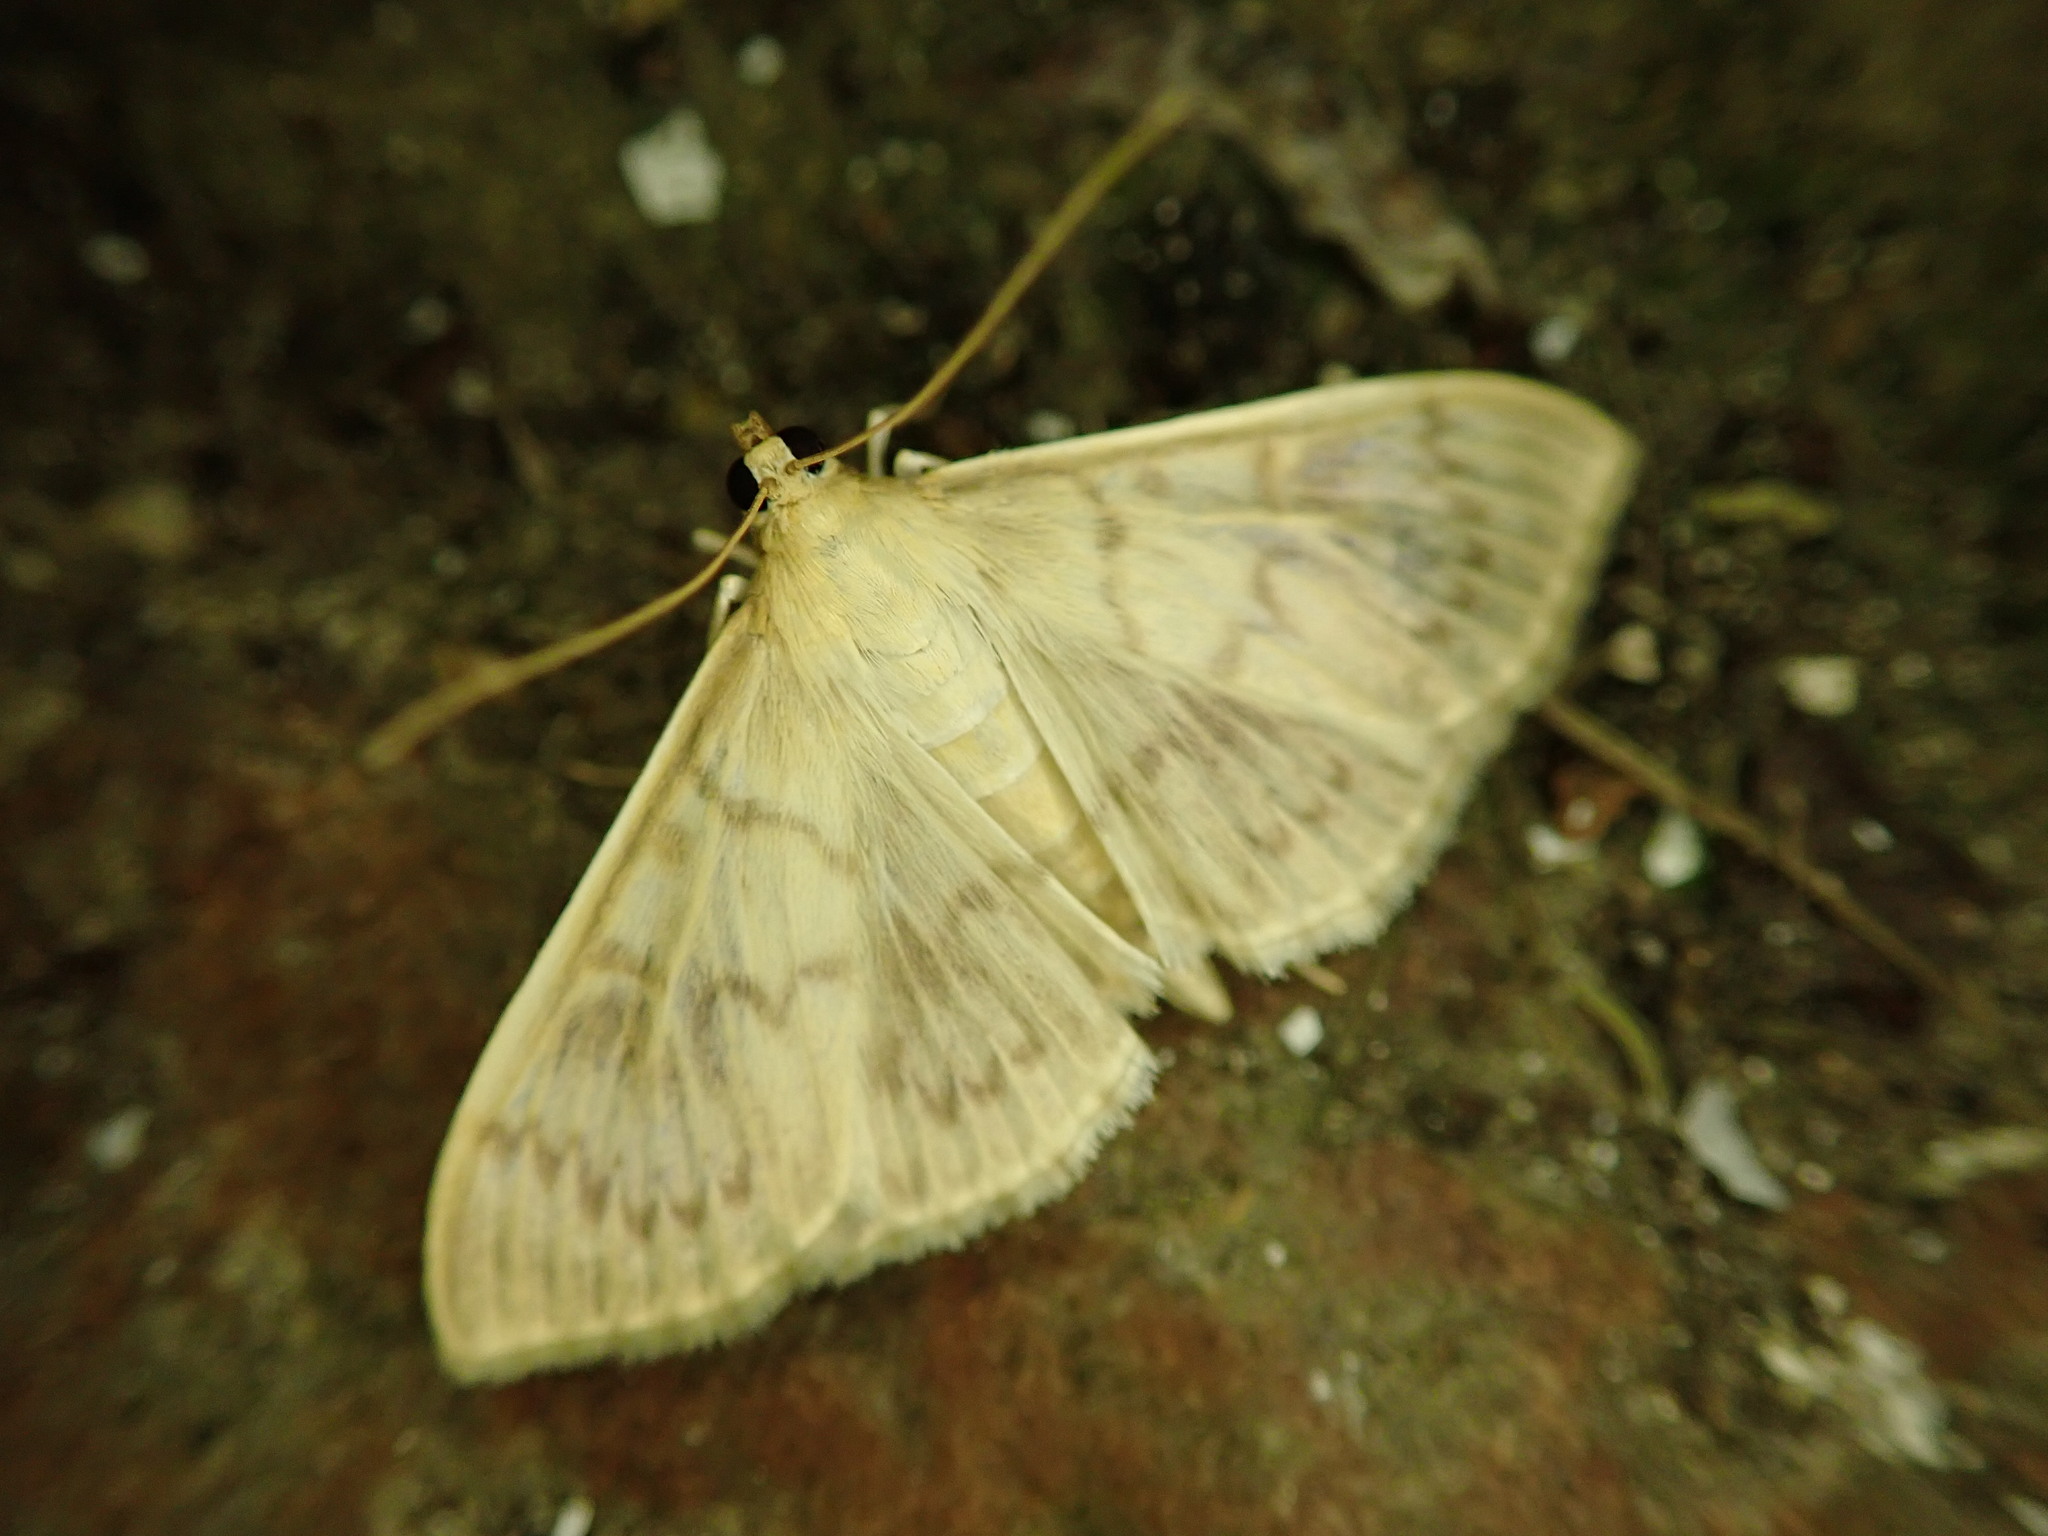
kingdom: Animalia
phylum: Arthropoda
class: Insecta
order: Lepidoptera
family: Crambidae
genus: Patania
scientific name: Patania ruralis
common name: Mother of pearl
